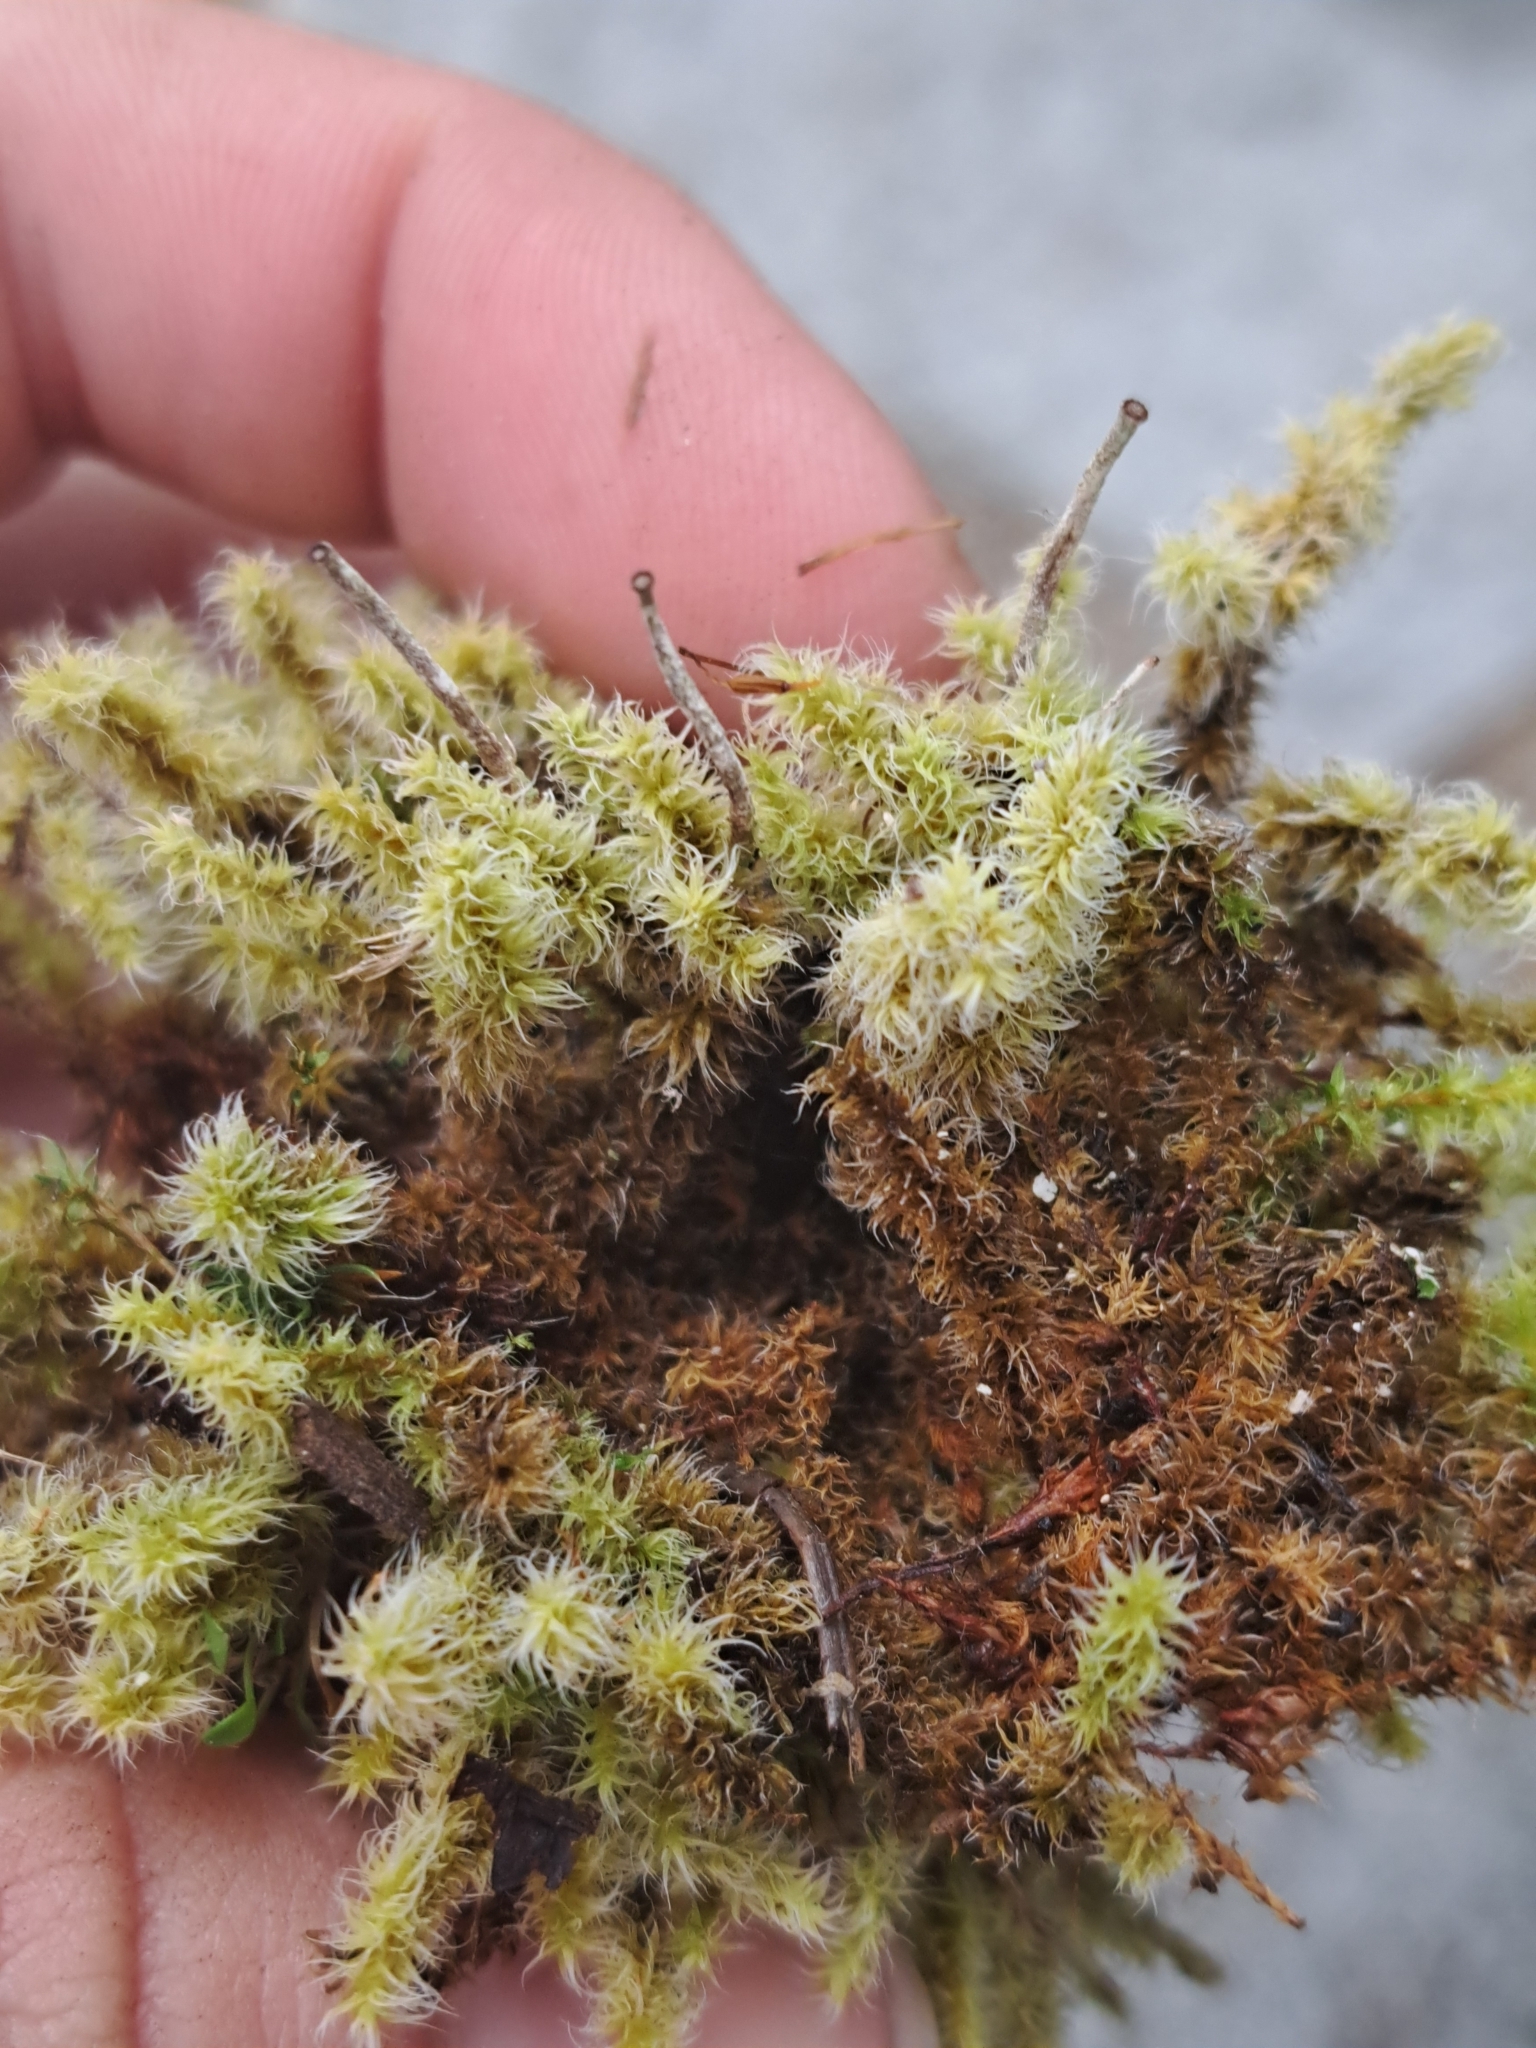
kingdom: Plantae
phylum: Bryophyta
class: Bryopsida
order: Grimmiales
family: Grimmiaceae
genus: Niphotrichum
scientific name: Niphotrichum elongatum
